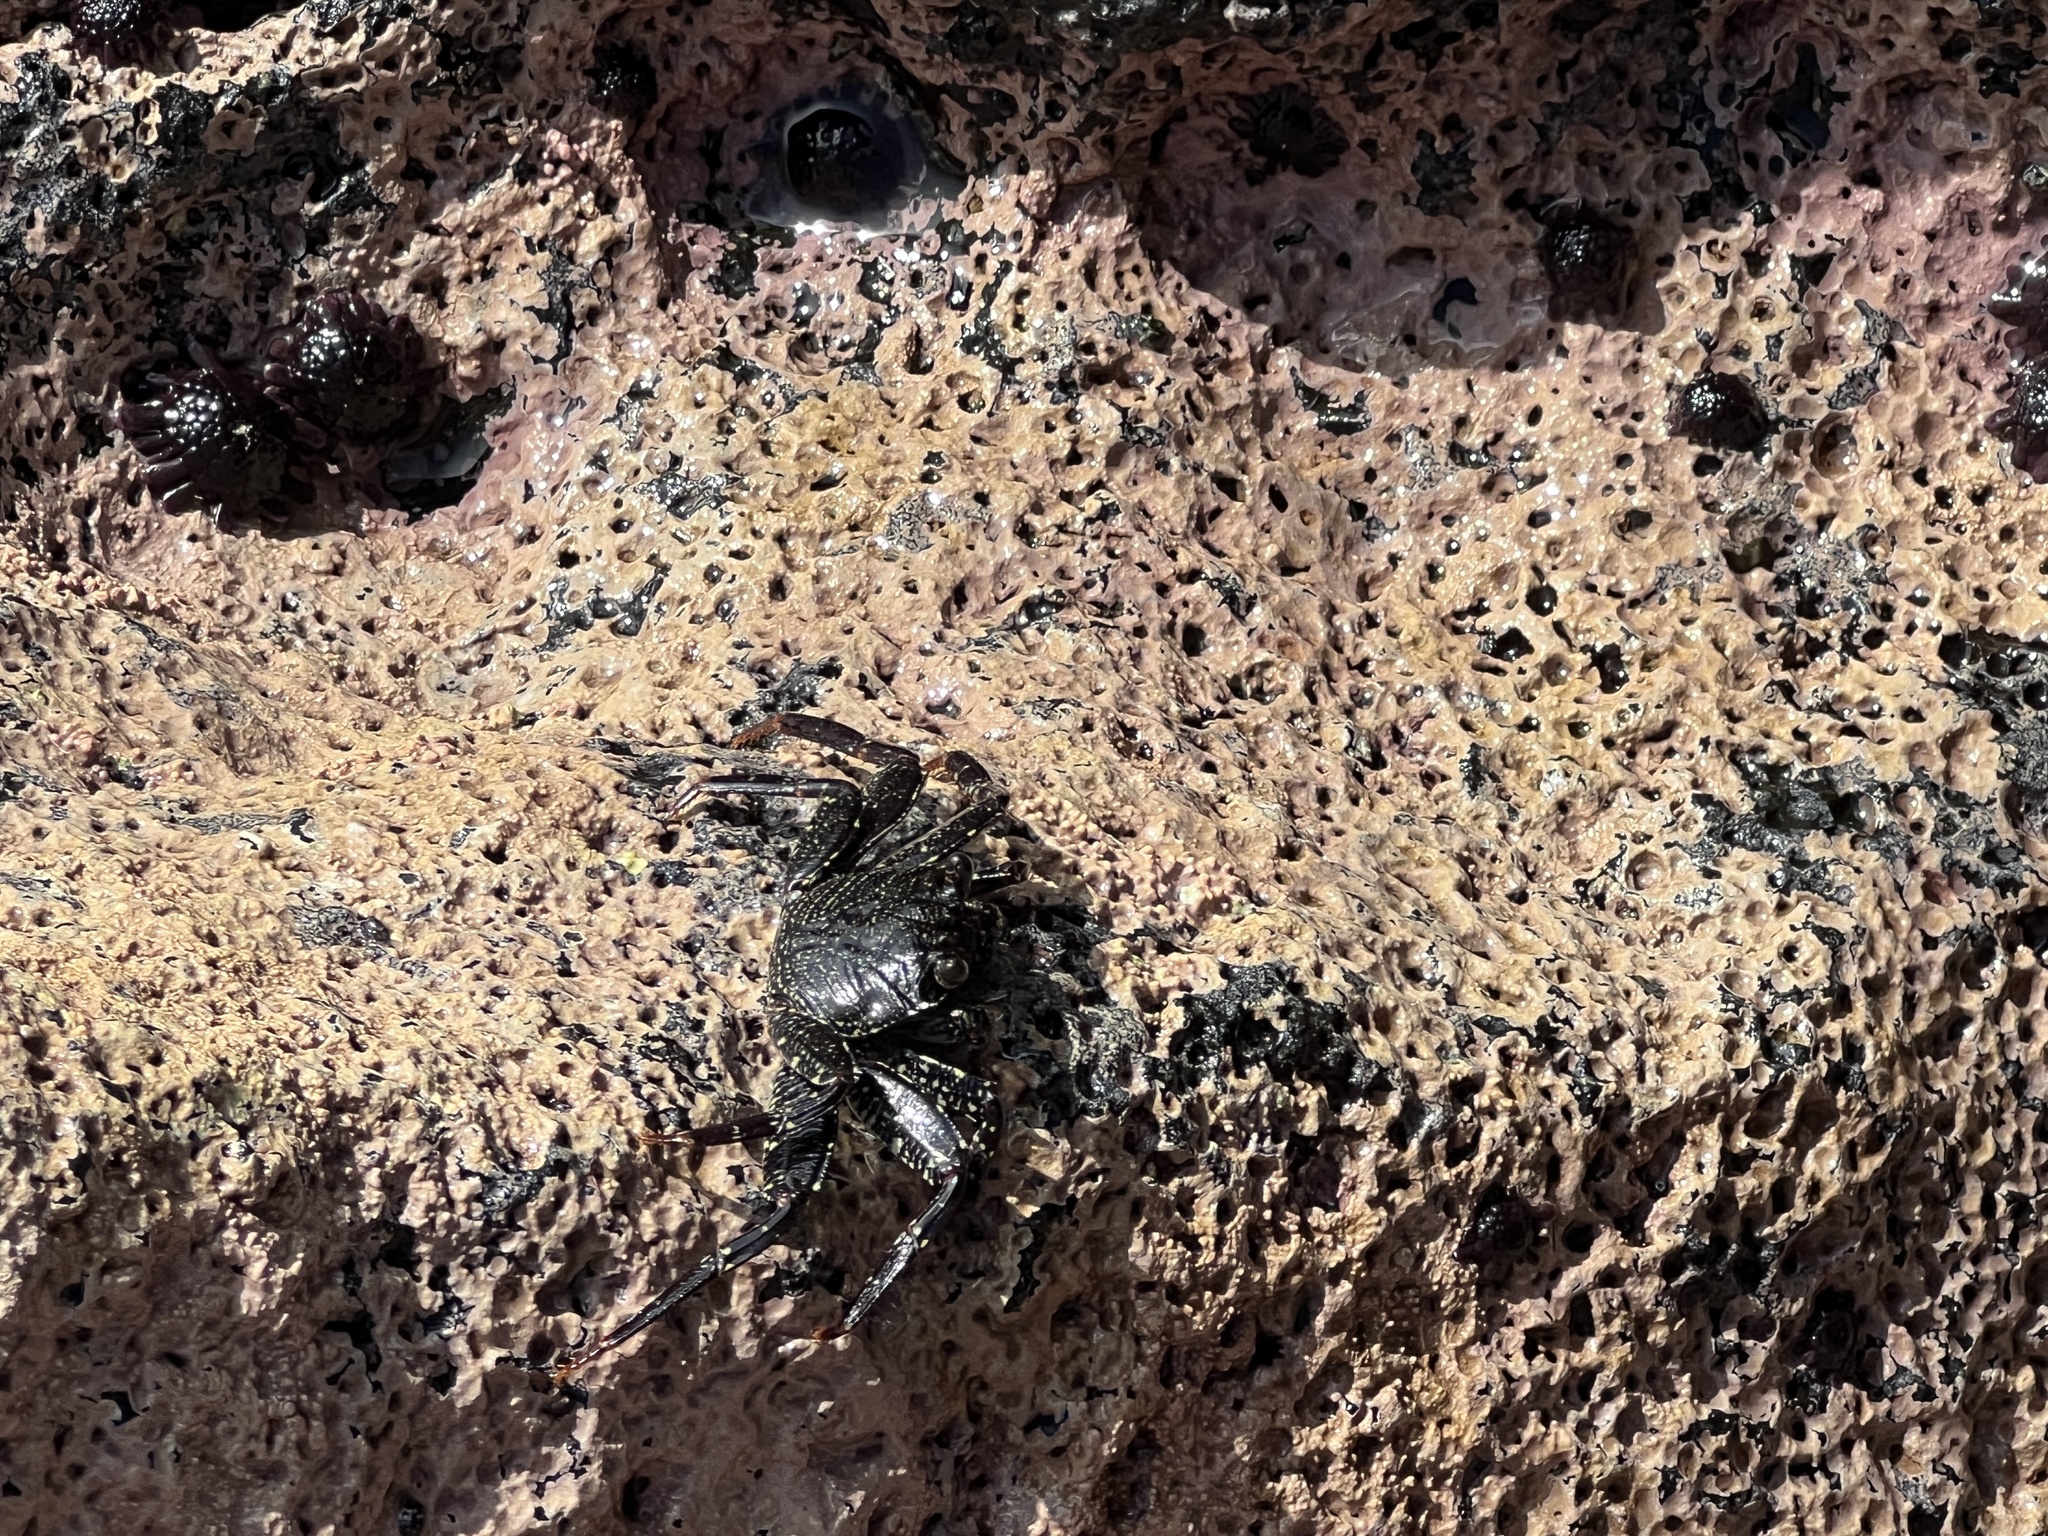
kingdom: Animalia
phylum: Arthropoda
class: Malacostraca
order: Decapoda
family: Grapsidae
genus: Grapsus
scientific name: Grapsus tenuicrustatus
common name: Natal lightfoot crab
